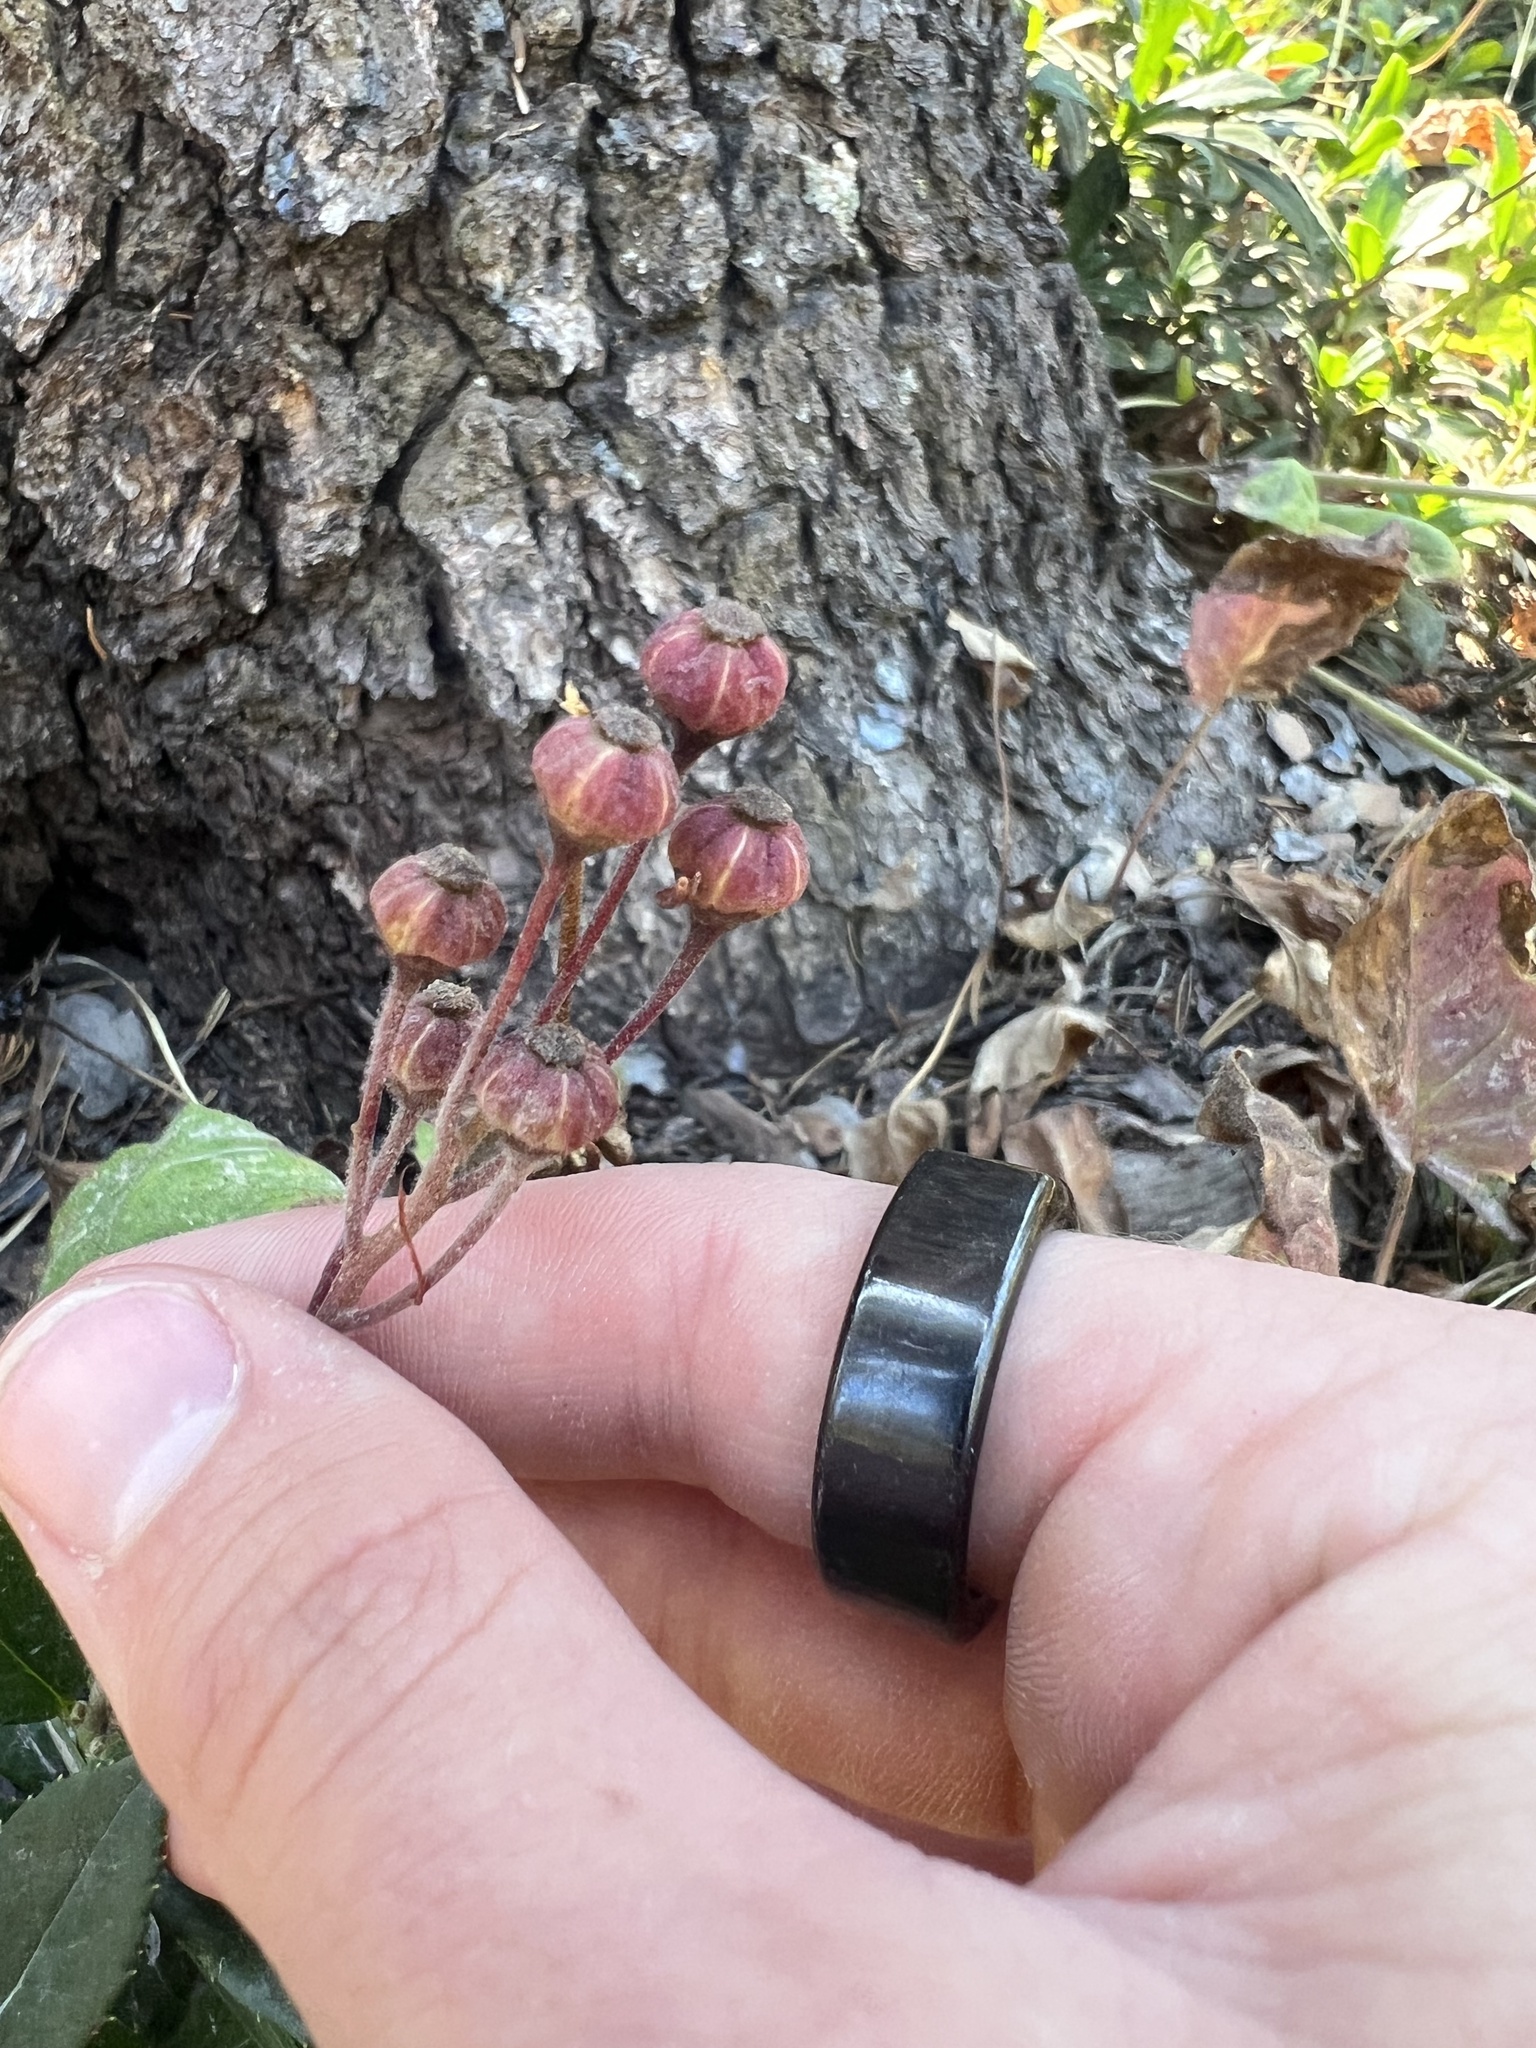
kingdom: Plantae
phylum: Tracheophyta
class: Magnoliopsida
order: Ericales
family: Ericaceae
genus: Chimaphila
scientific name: Chimaphila umbellata
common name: Pipsissewa
